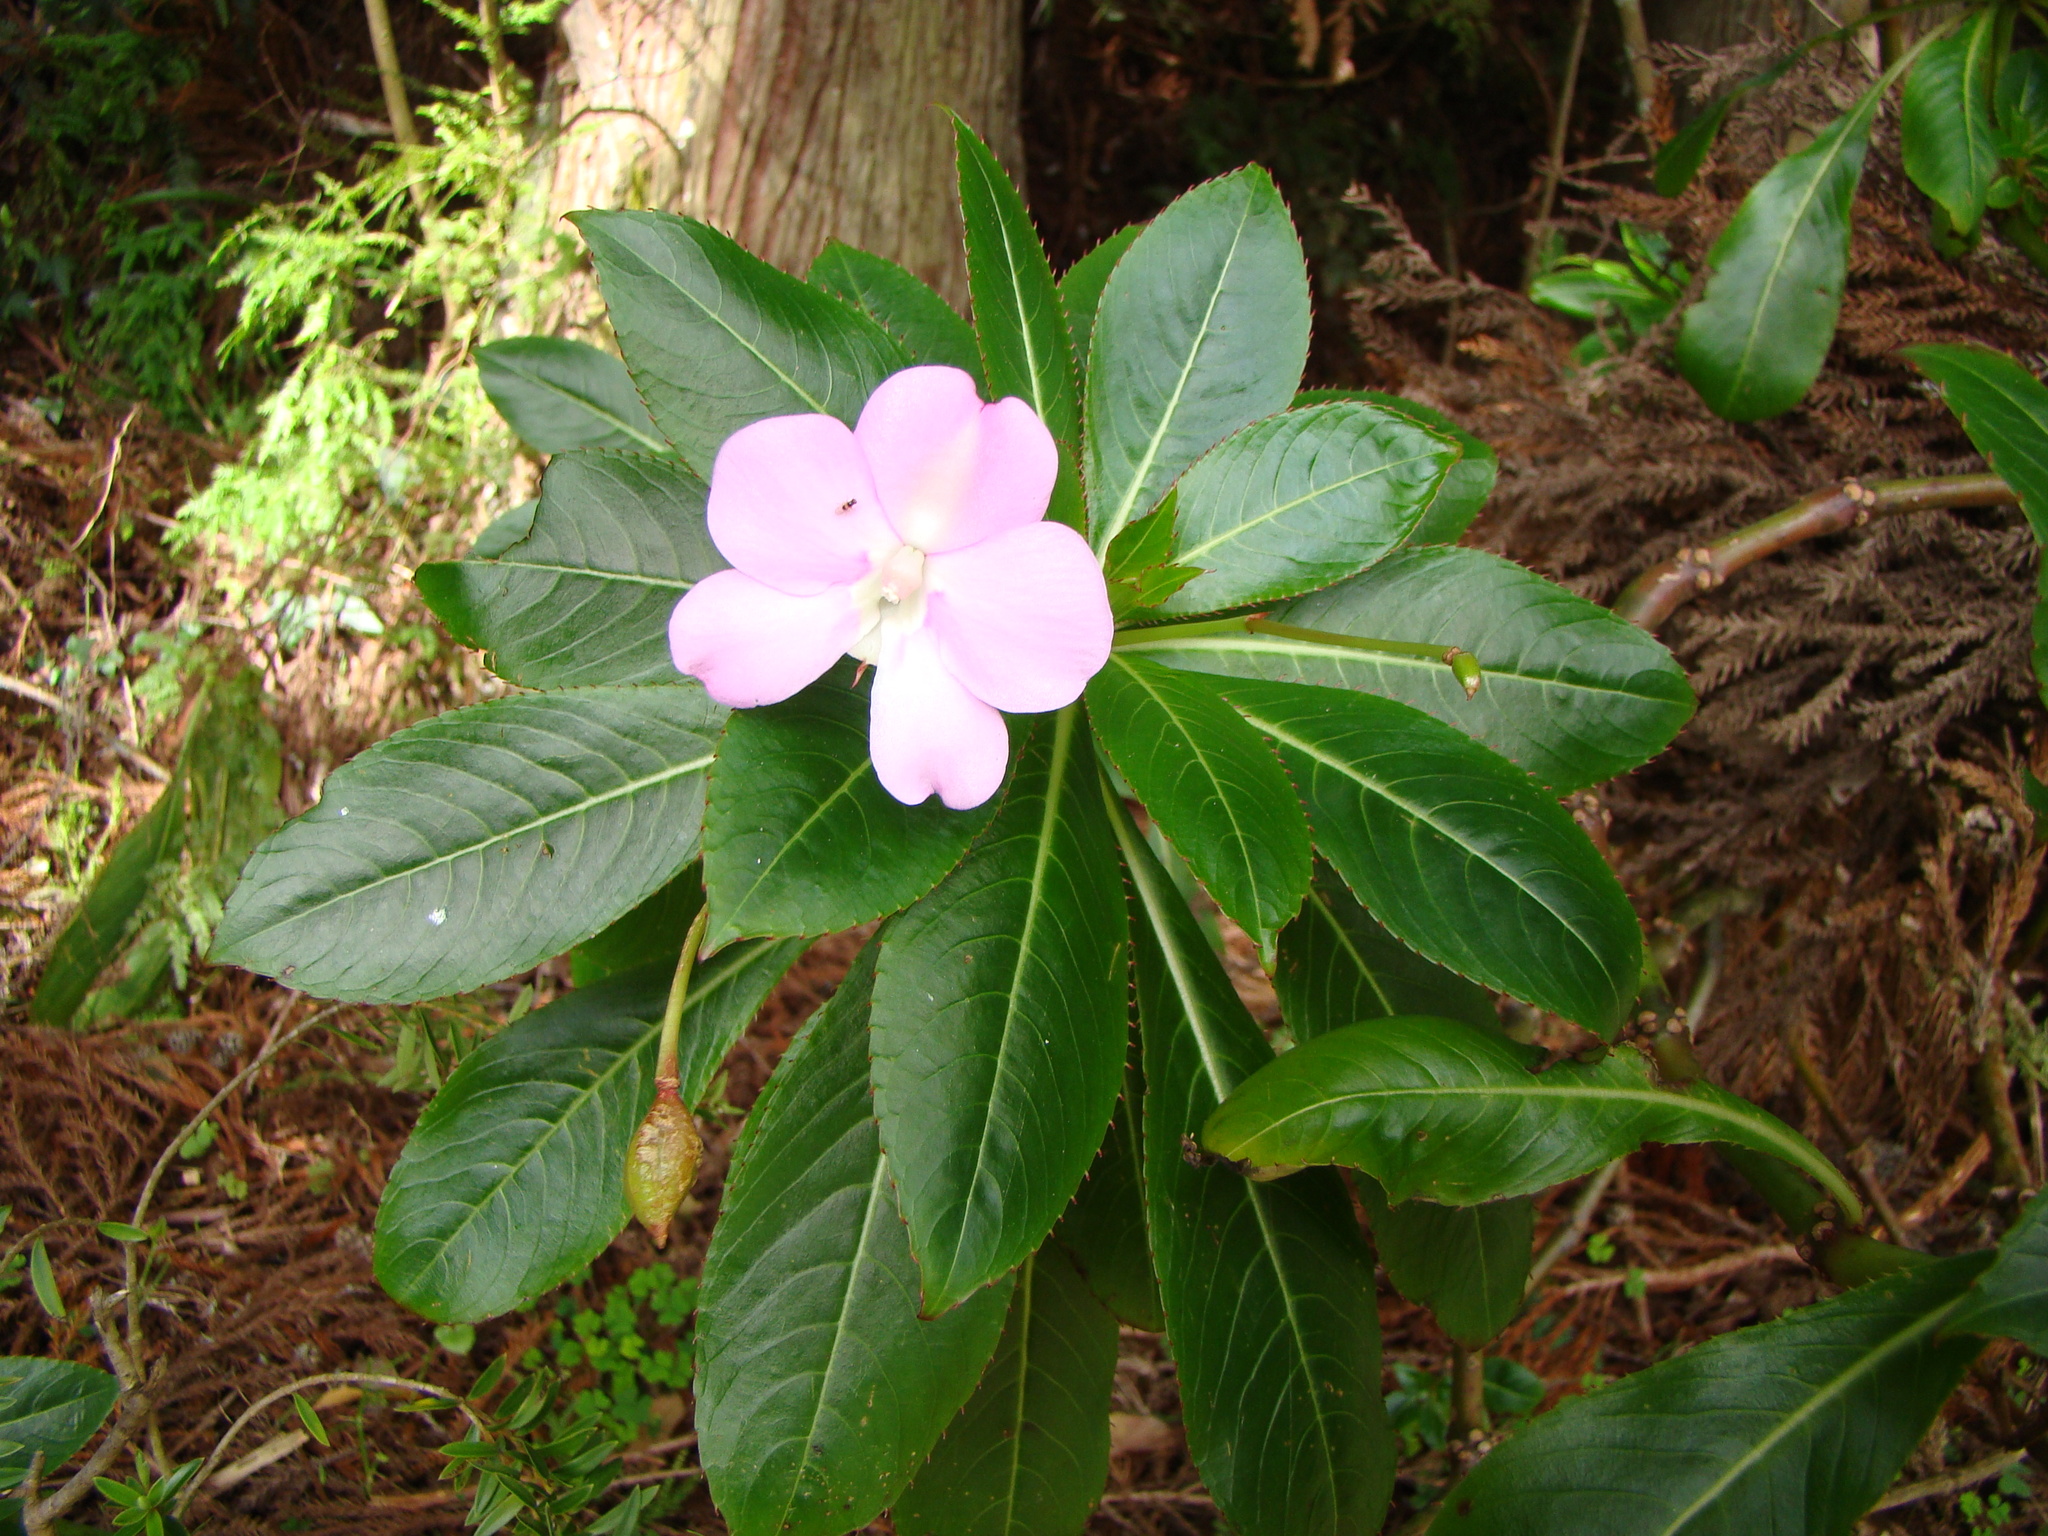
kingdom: Plantae
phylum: Tracheophyta
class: Magnoliopsida
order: Ericales
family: Balsaminaceae
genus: Impatiens
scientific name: Impatiens sodenii
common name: Oliver's touch-me-not
